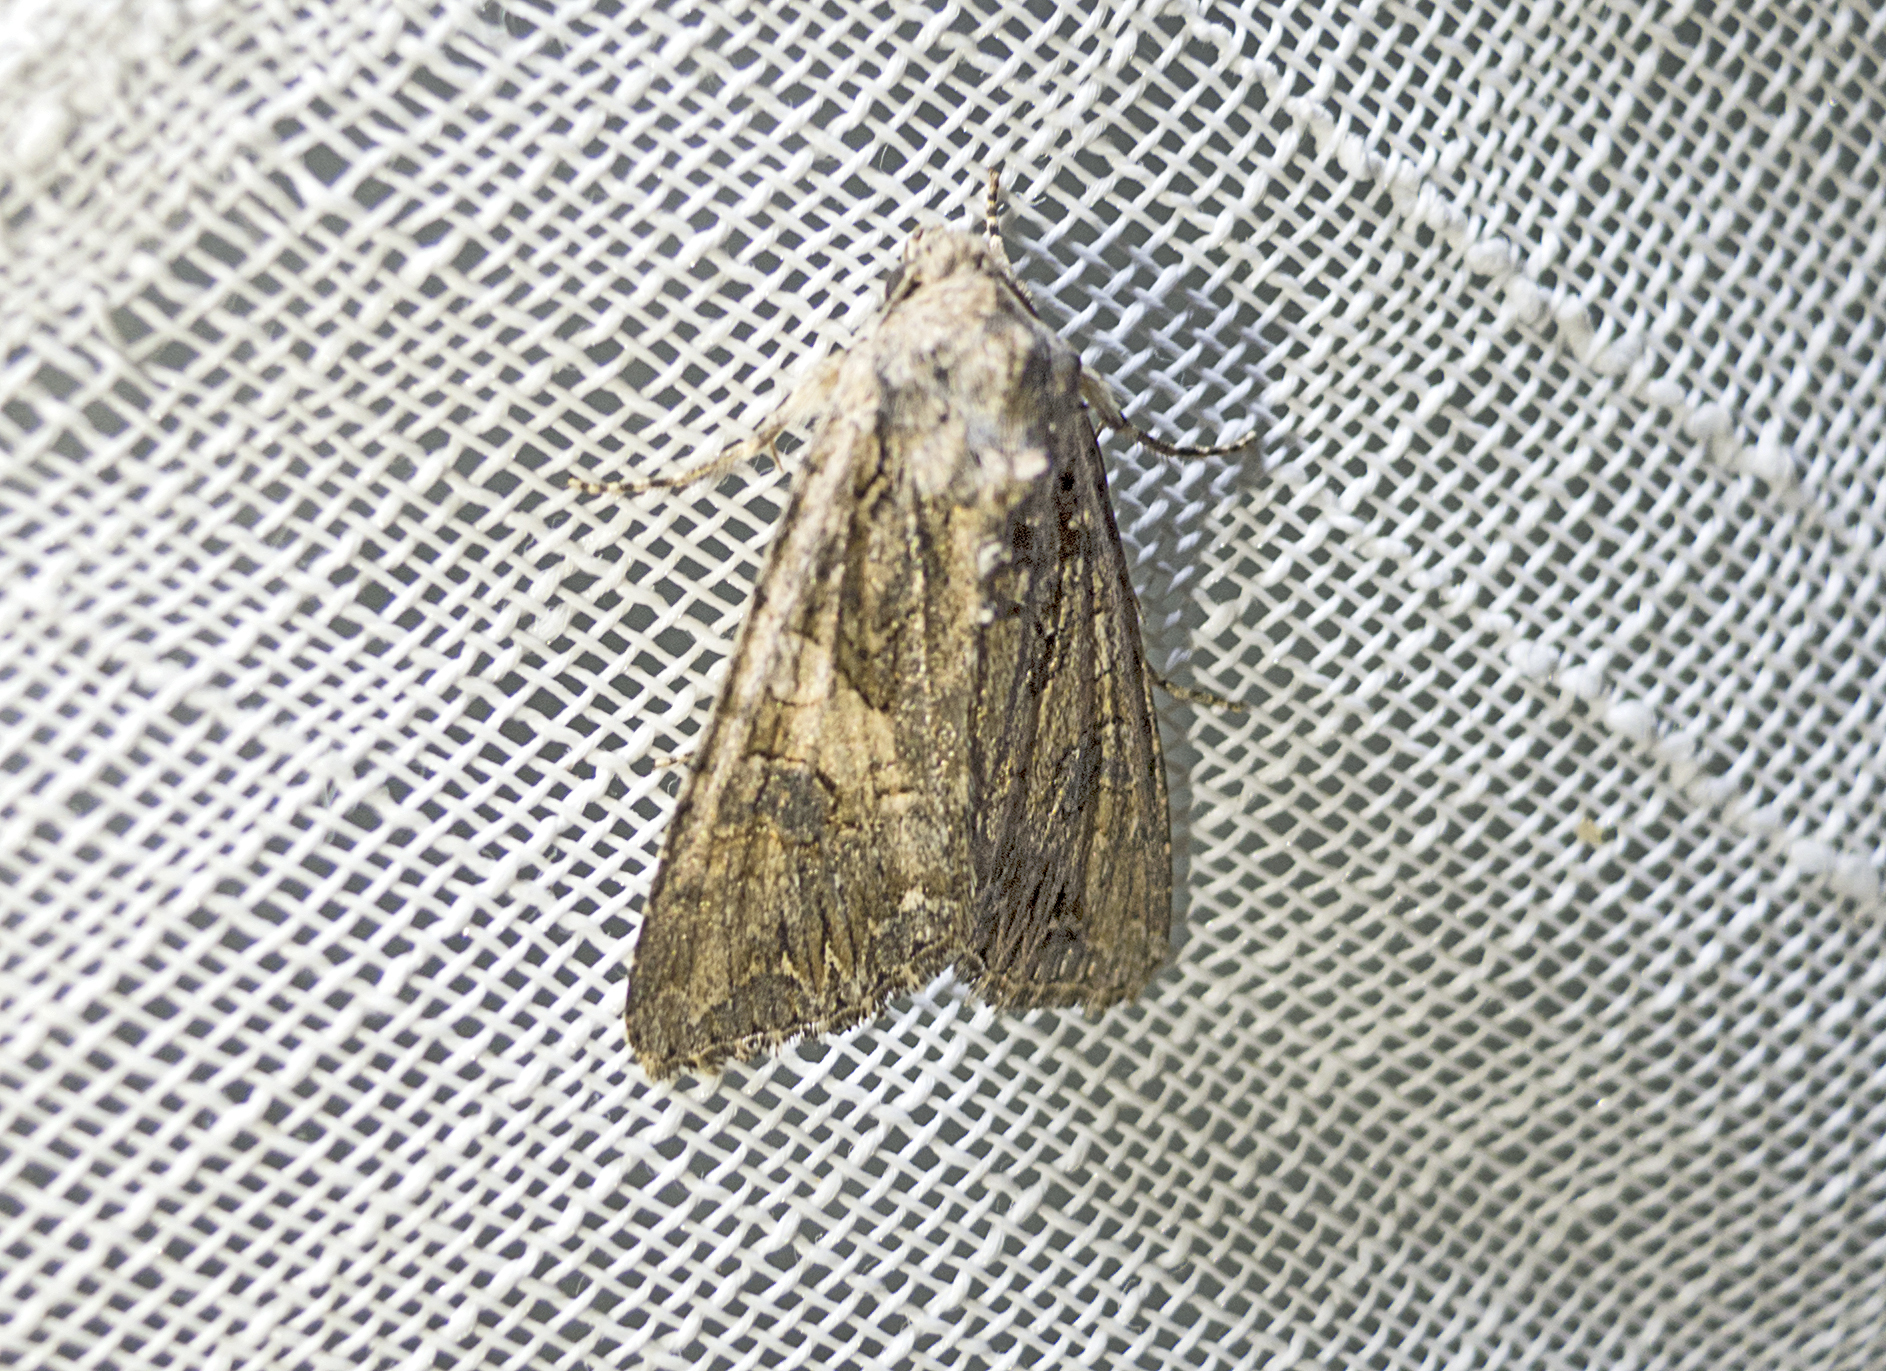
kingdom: Animalia
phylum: Arthropoda
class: Insecta
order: Lepidoptera
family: Noctuidae
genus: Anarta
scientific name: Anarta trifolii
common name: Clover cutworm moth
